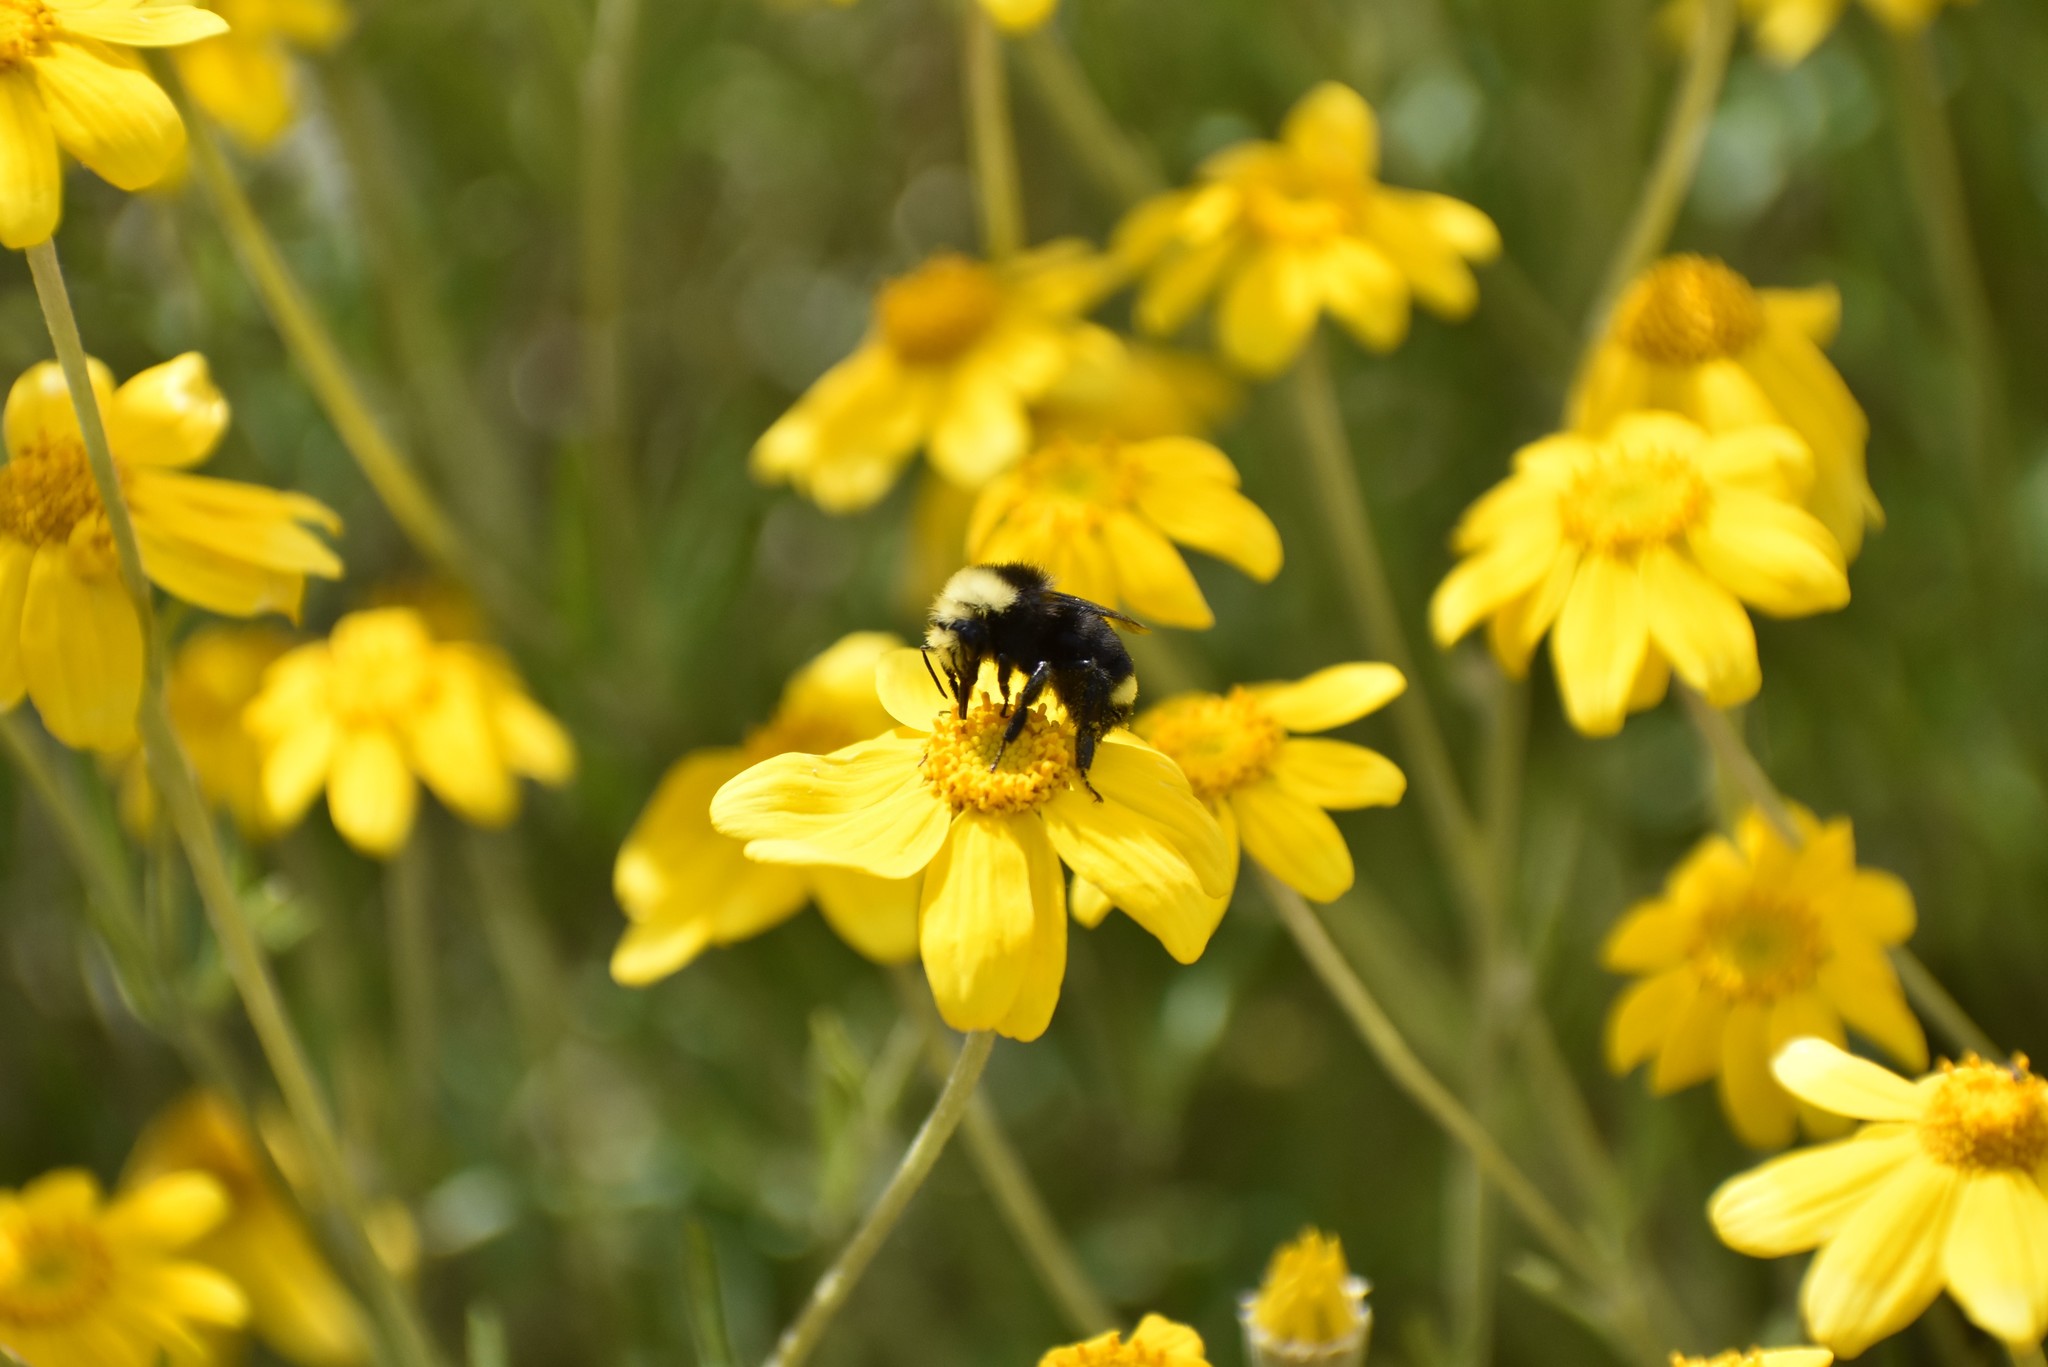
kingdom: Animalia
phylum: Arthropoda
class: Insecta
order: Hymenoptera
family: Apidae
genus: Bombus
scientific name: Bombus vosnesenskii
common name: Vosnesensky bumble bee
